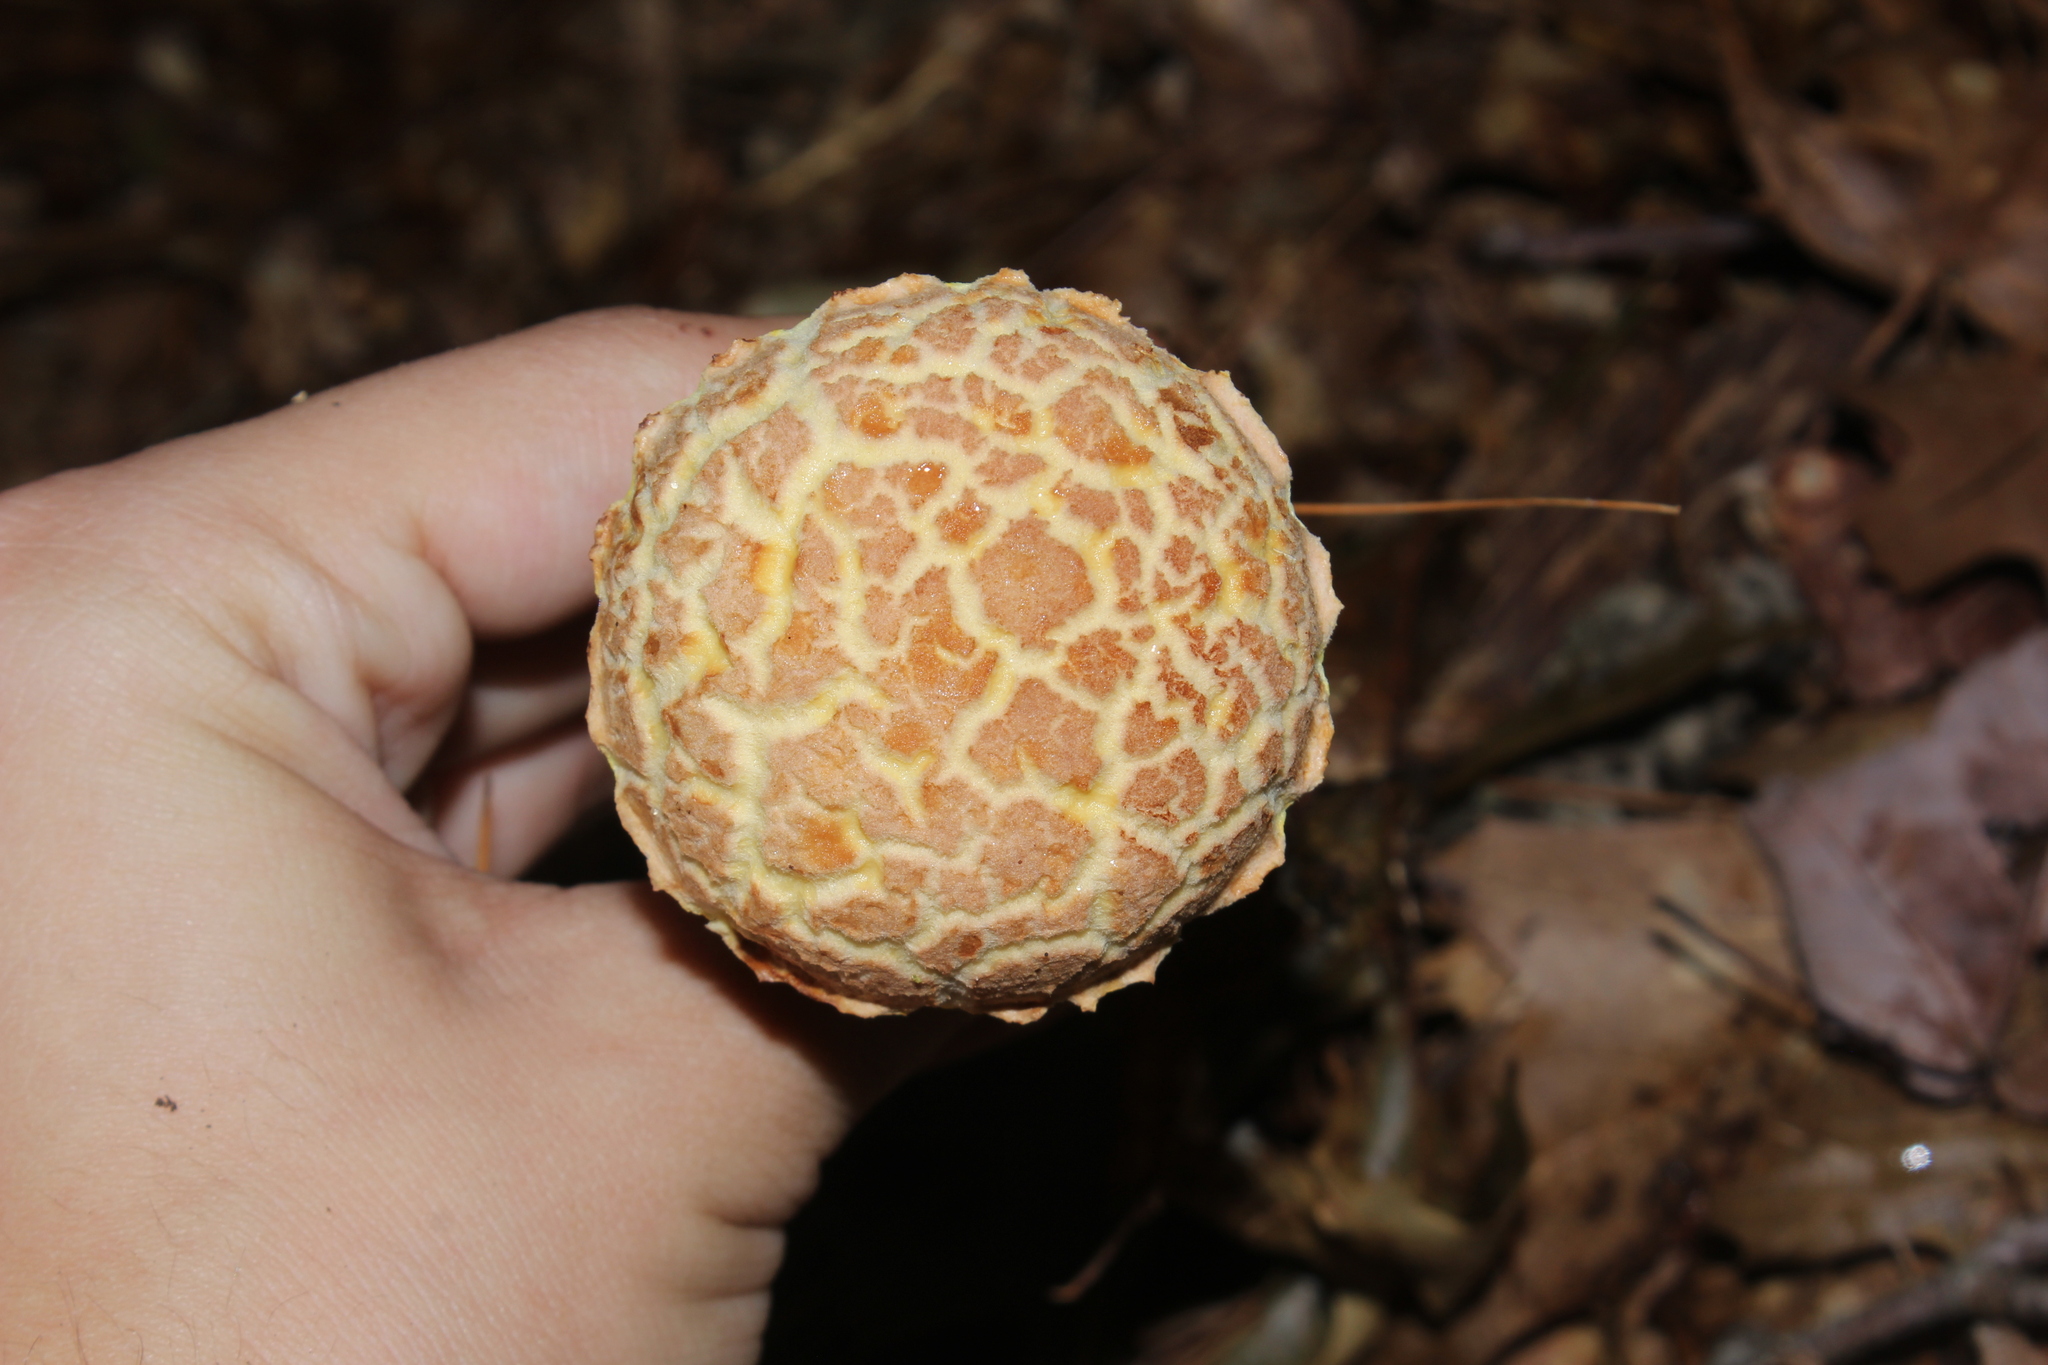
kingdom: Fungi
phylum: Basidiomycota
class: Agaricomycetes
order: Boletales
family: Boletaceae
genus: Aureoboletus
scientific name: Aureoboletus russellii
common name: Russell's bolete
